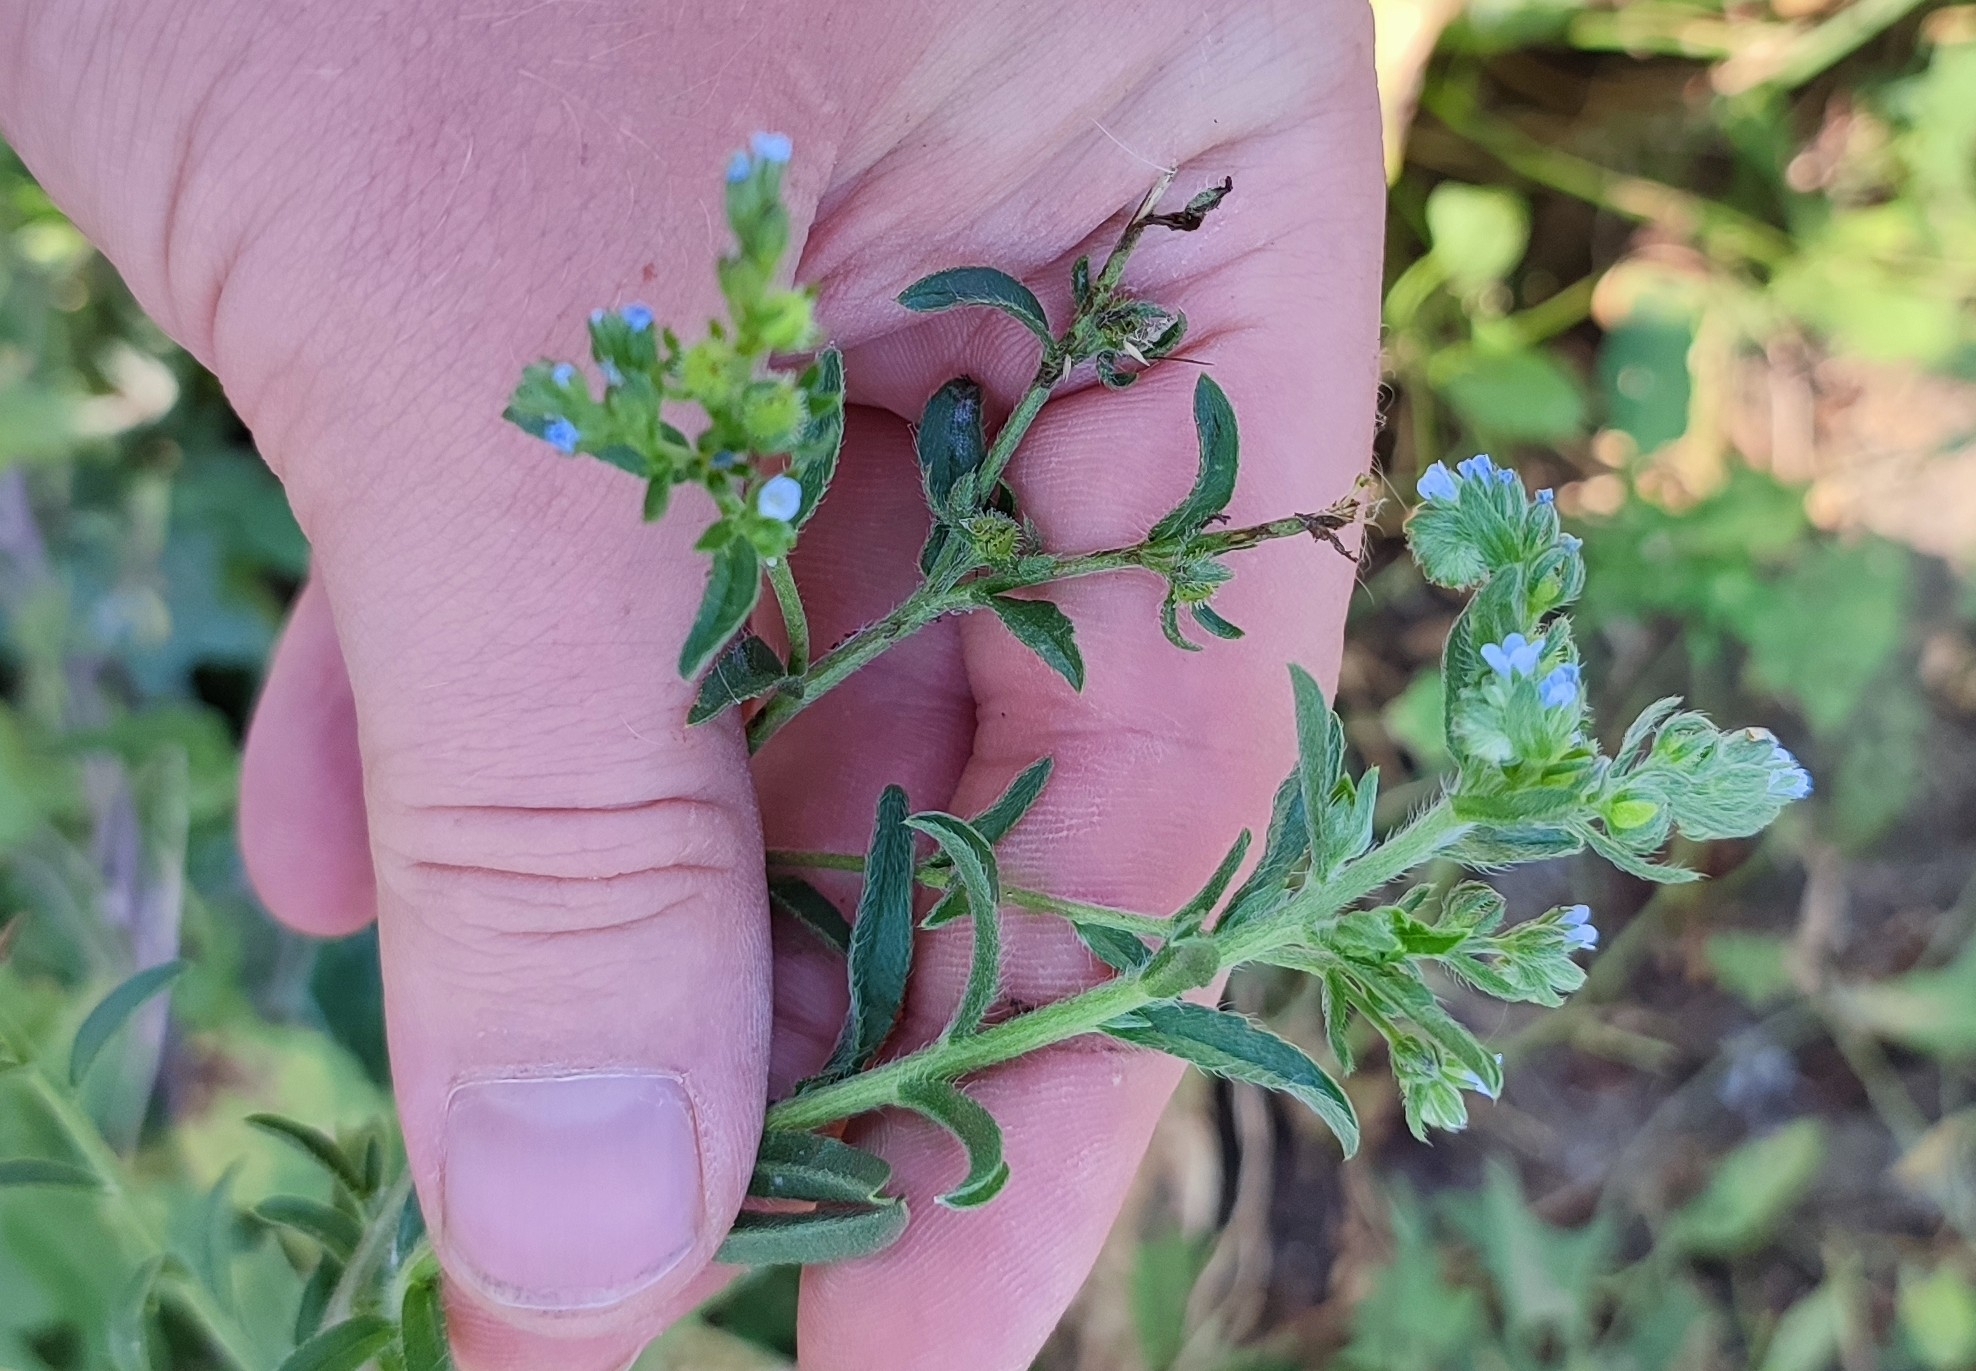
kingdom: Plantae
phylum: Tracheophyta
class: Magnoliopsida
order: Boraginales
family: Boraginaceae
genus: Lappula
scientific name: Lappula squarrosa
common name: European stickseed
